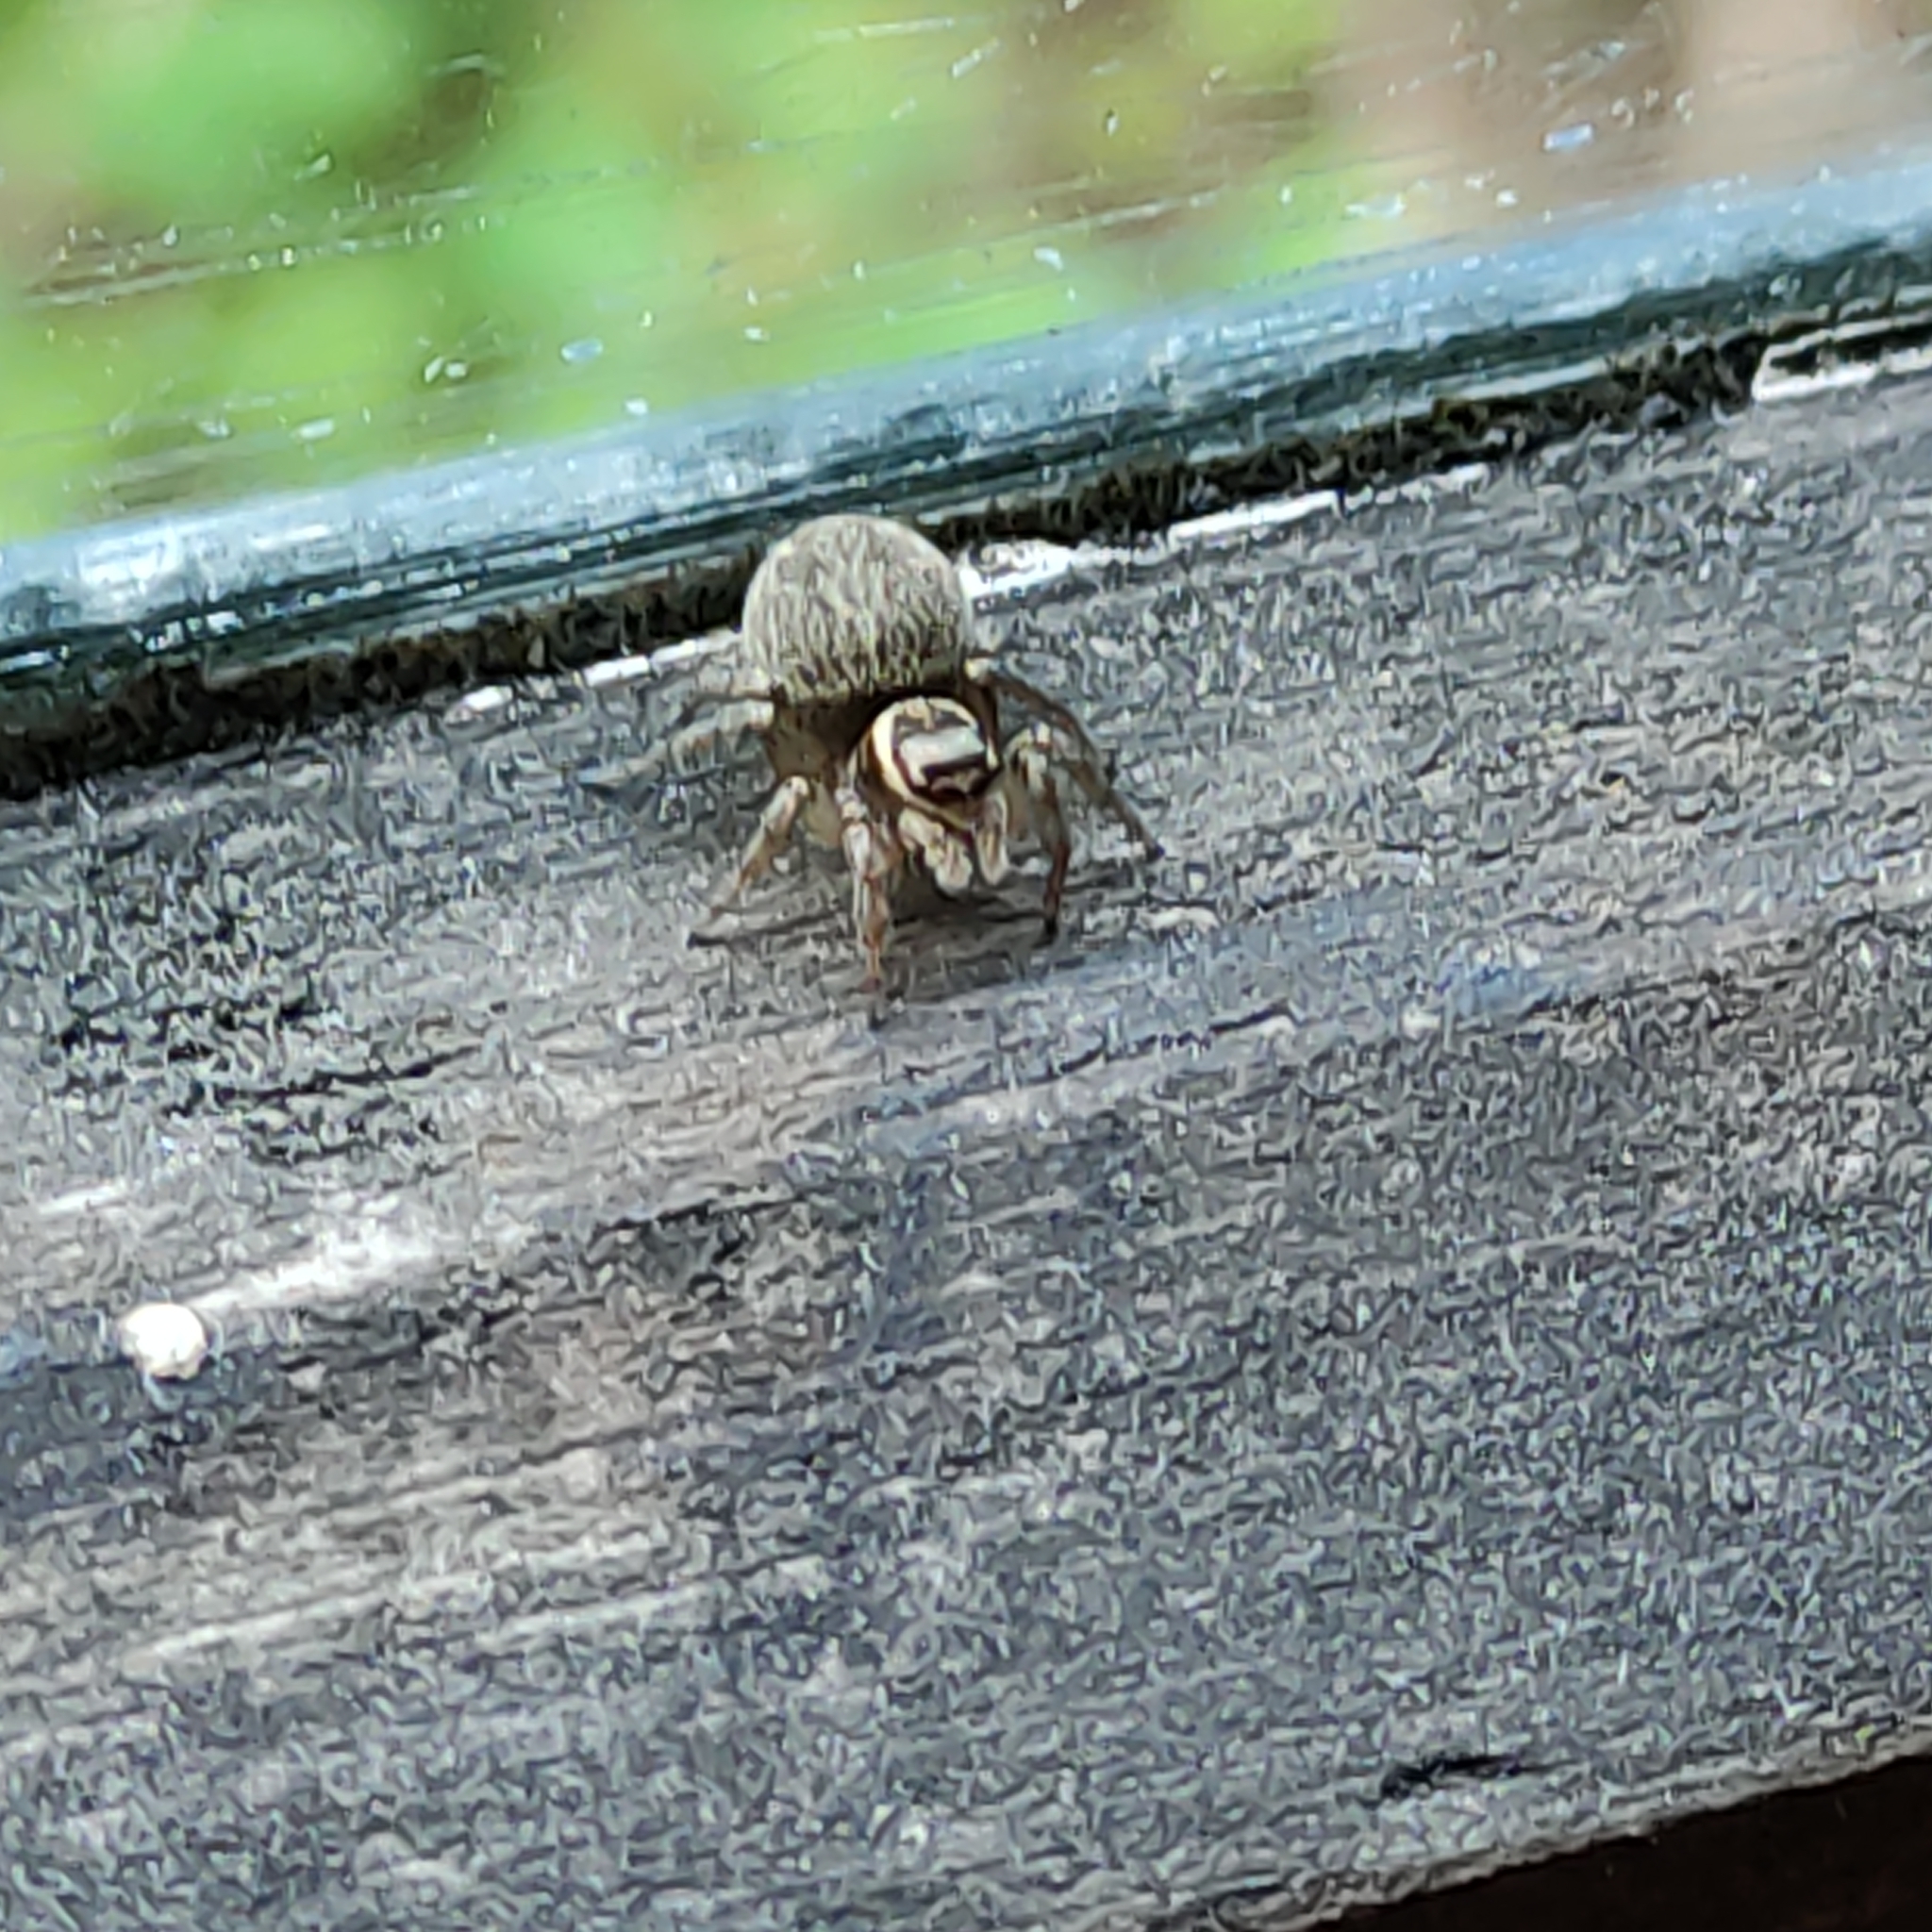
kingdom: Animalia
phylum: Arthropoda
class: Arachnida
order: Araneae
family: Salticidae
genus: Maratus
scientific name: Maratus griseus
